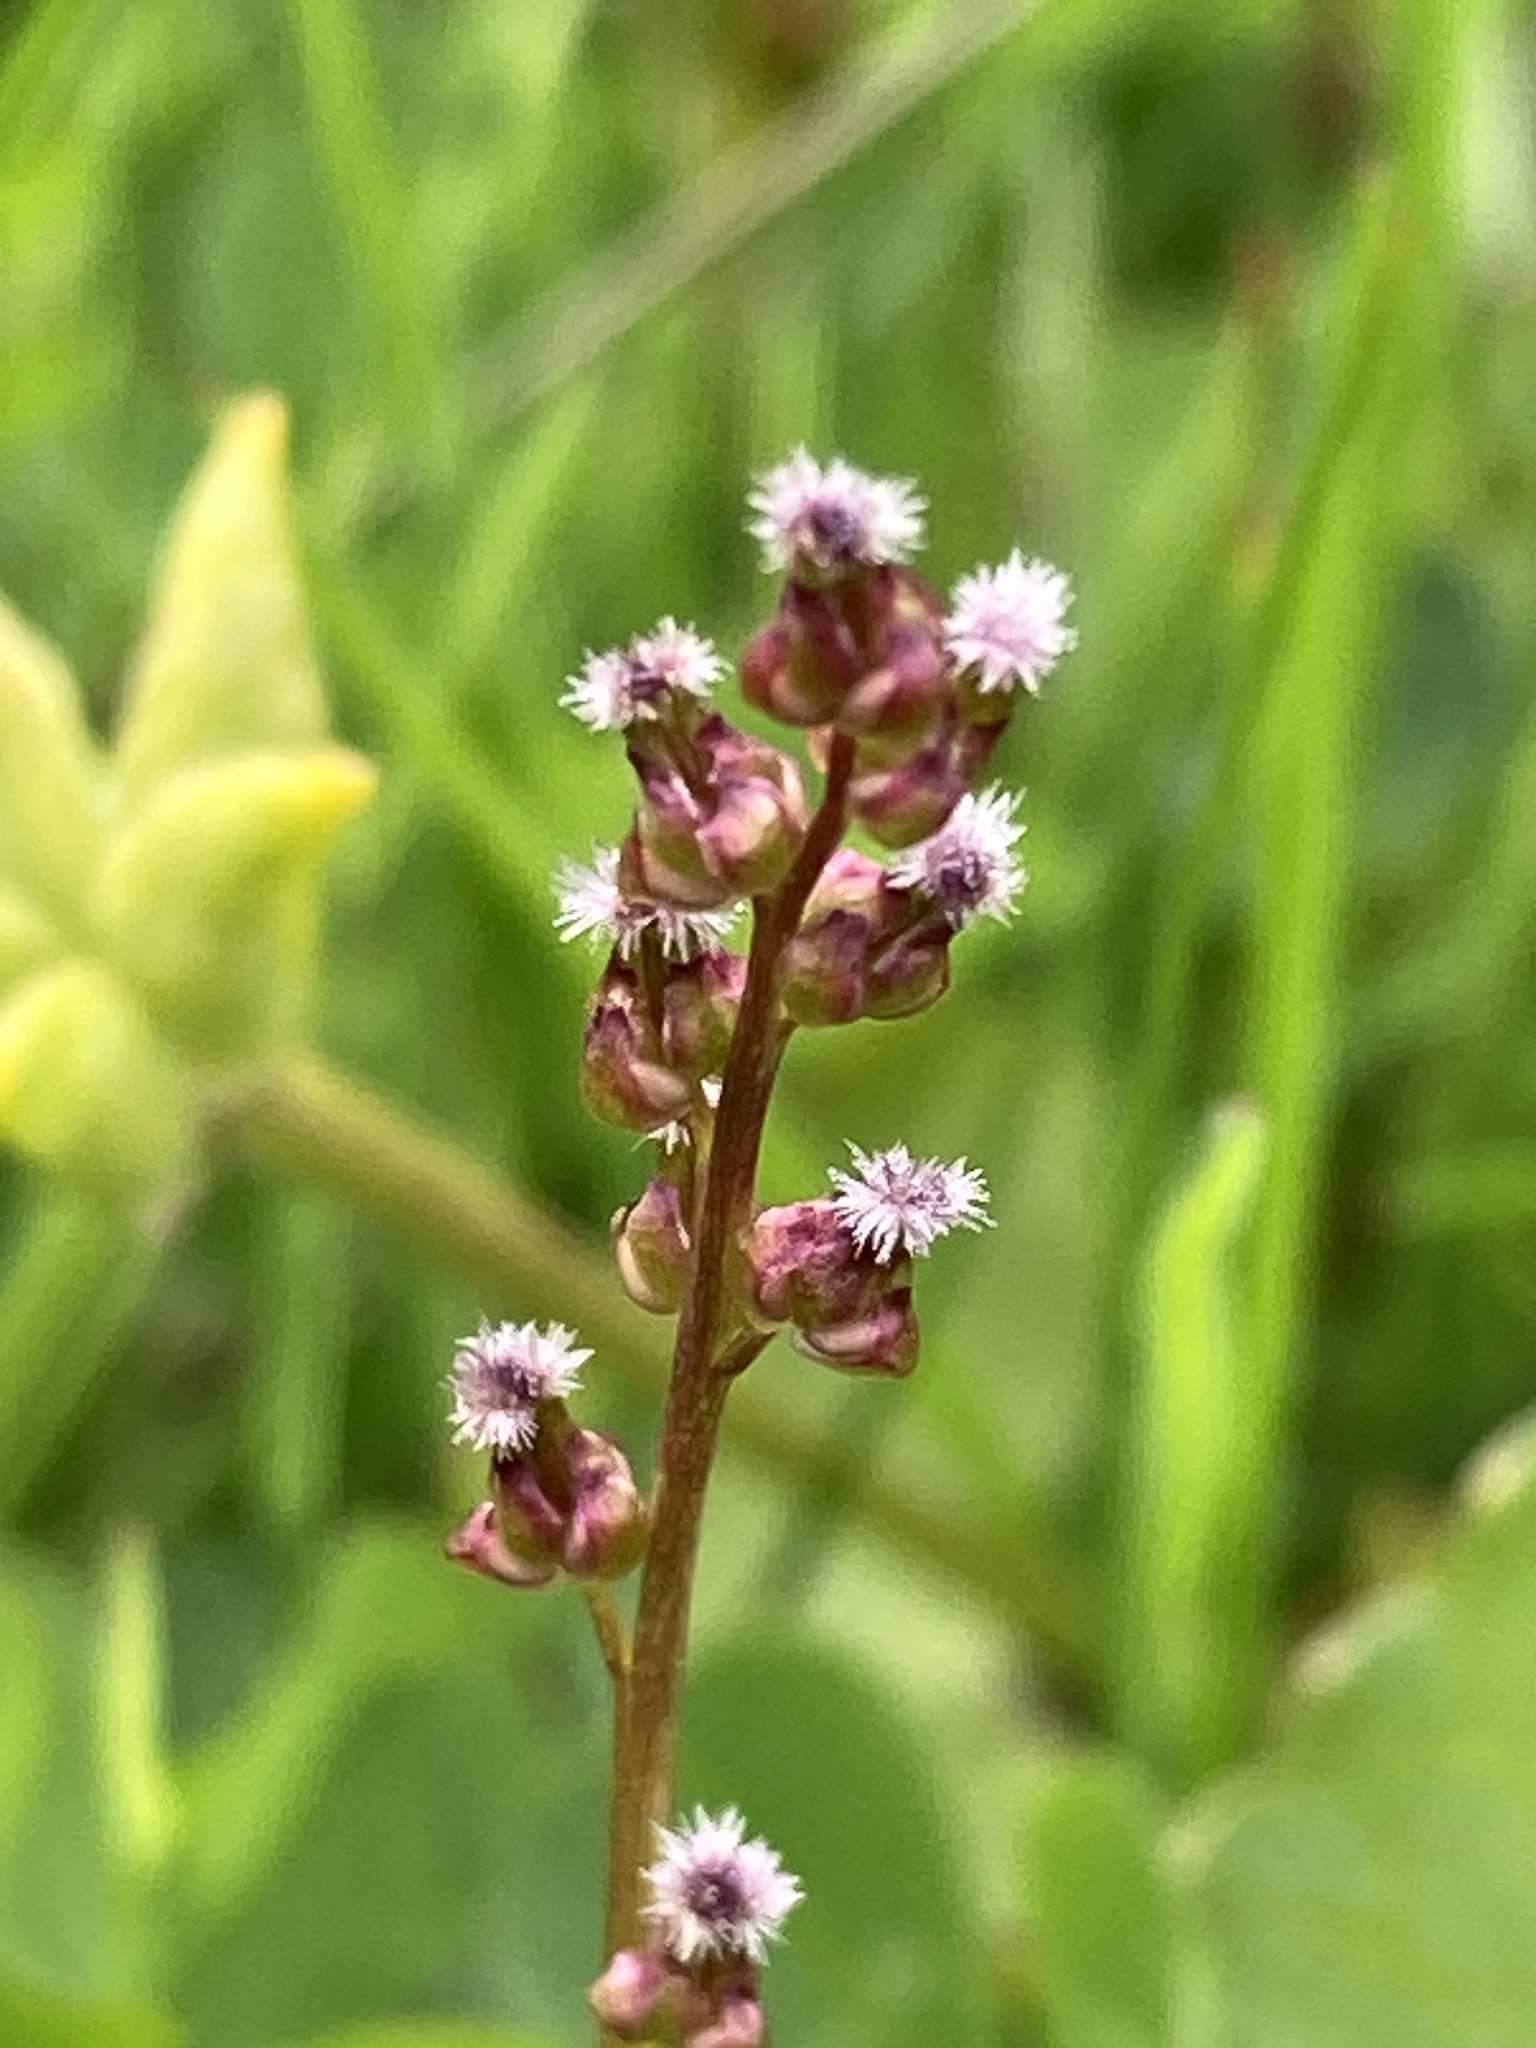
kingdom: Plantae
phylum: Tracheophyta
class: Liliopsida
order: Alismatales
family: Juncaginaceae
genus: Triglochin
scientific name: Triglochin palustris
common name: Marsh arrowgrass
